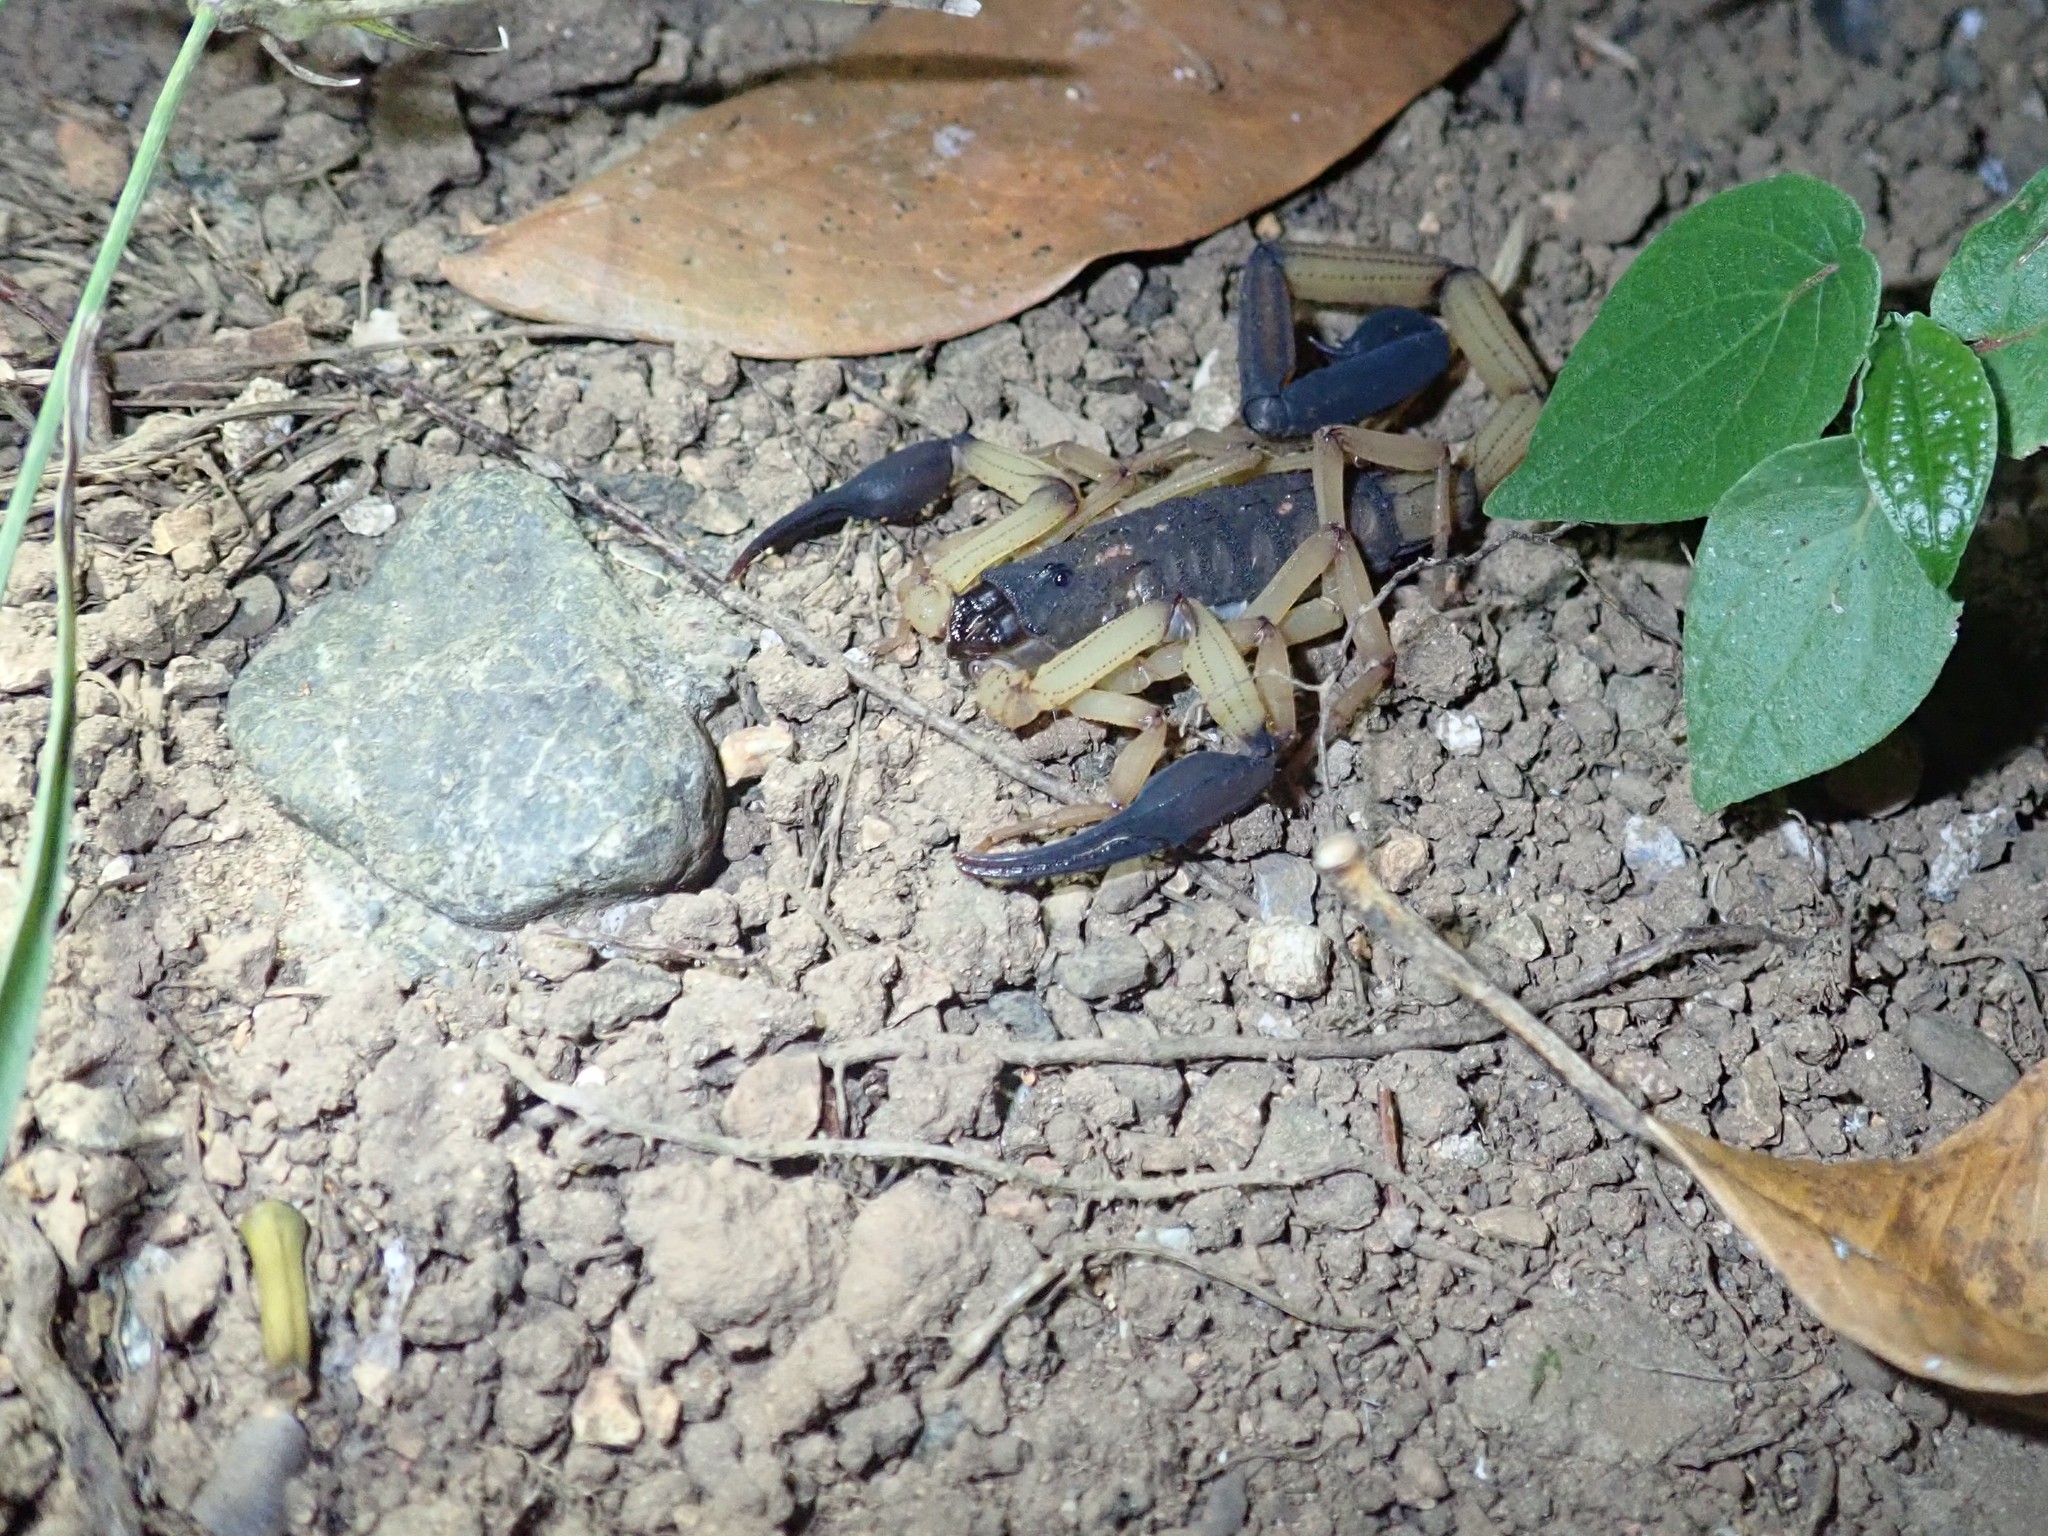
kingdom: Animalia
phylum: Arthropoda
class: Arachnida
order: Scorpiones
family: Buthidae
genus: Centruroides
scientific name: Centruroides bicolor
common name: Scorpions
